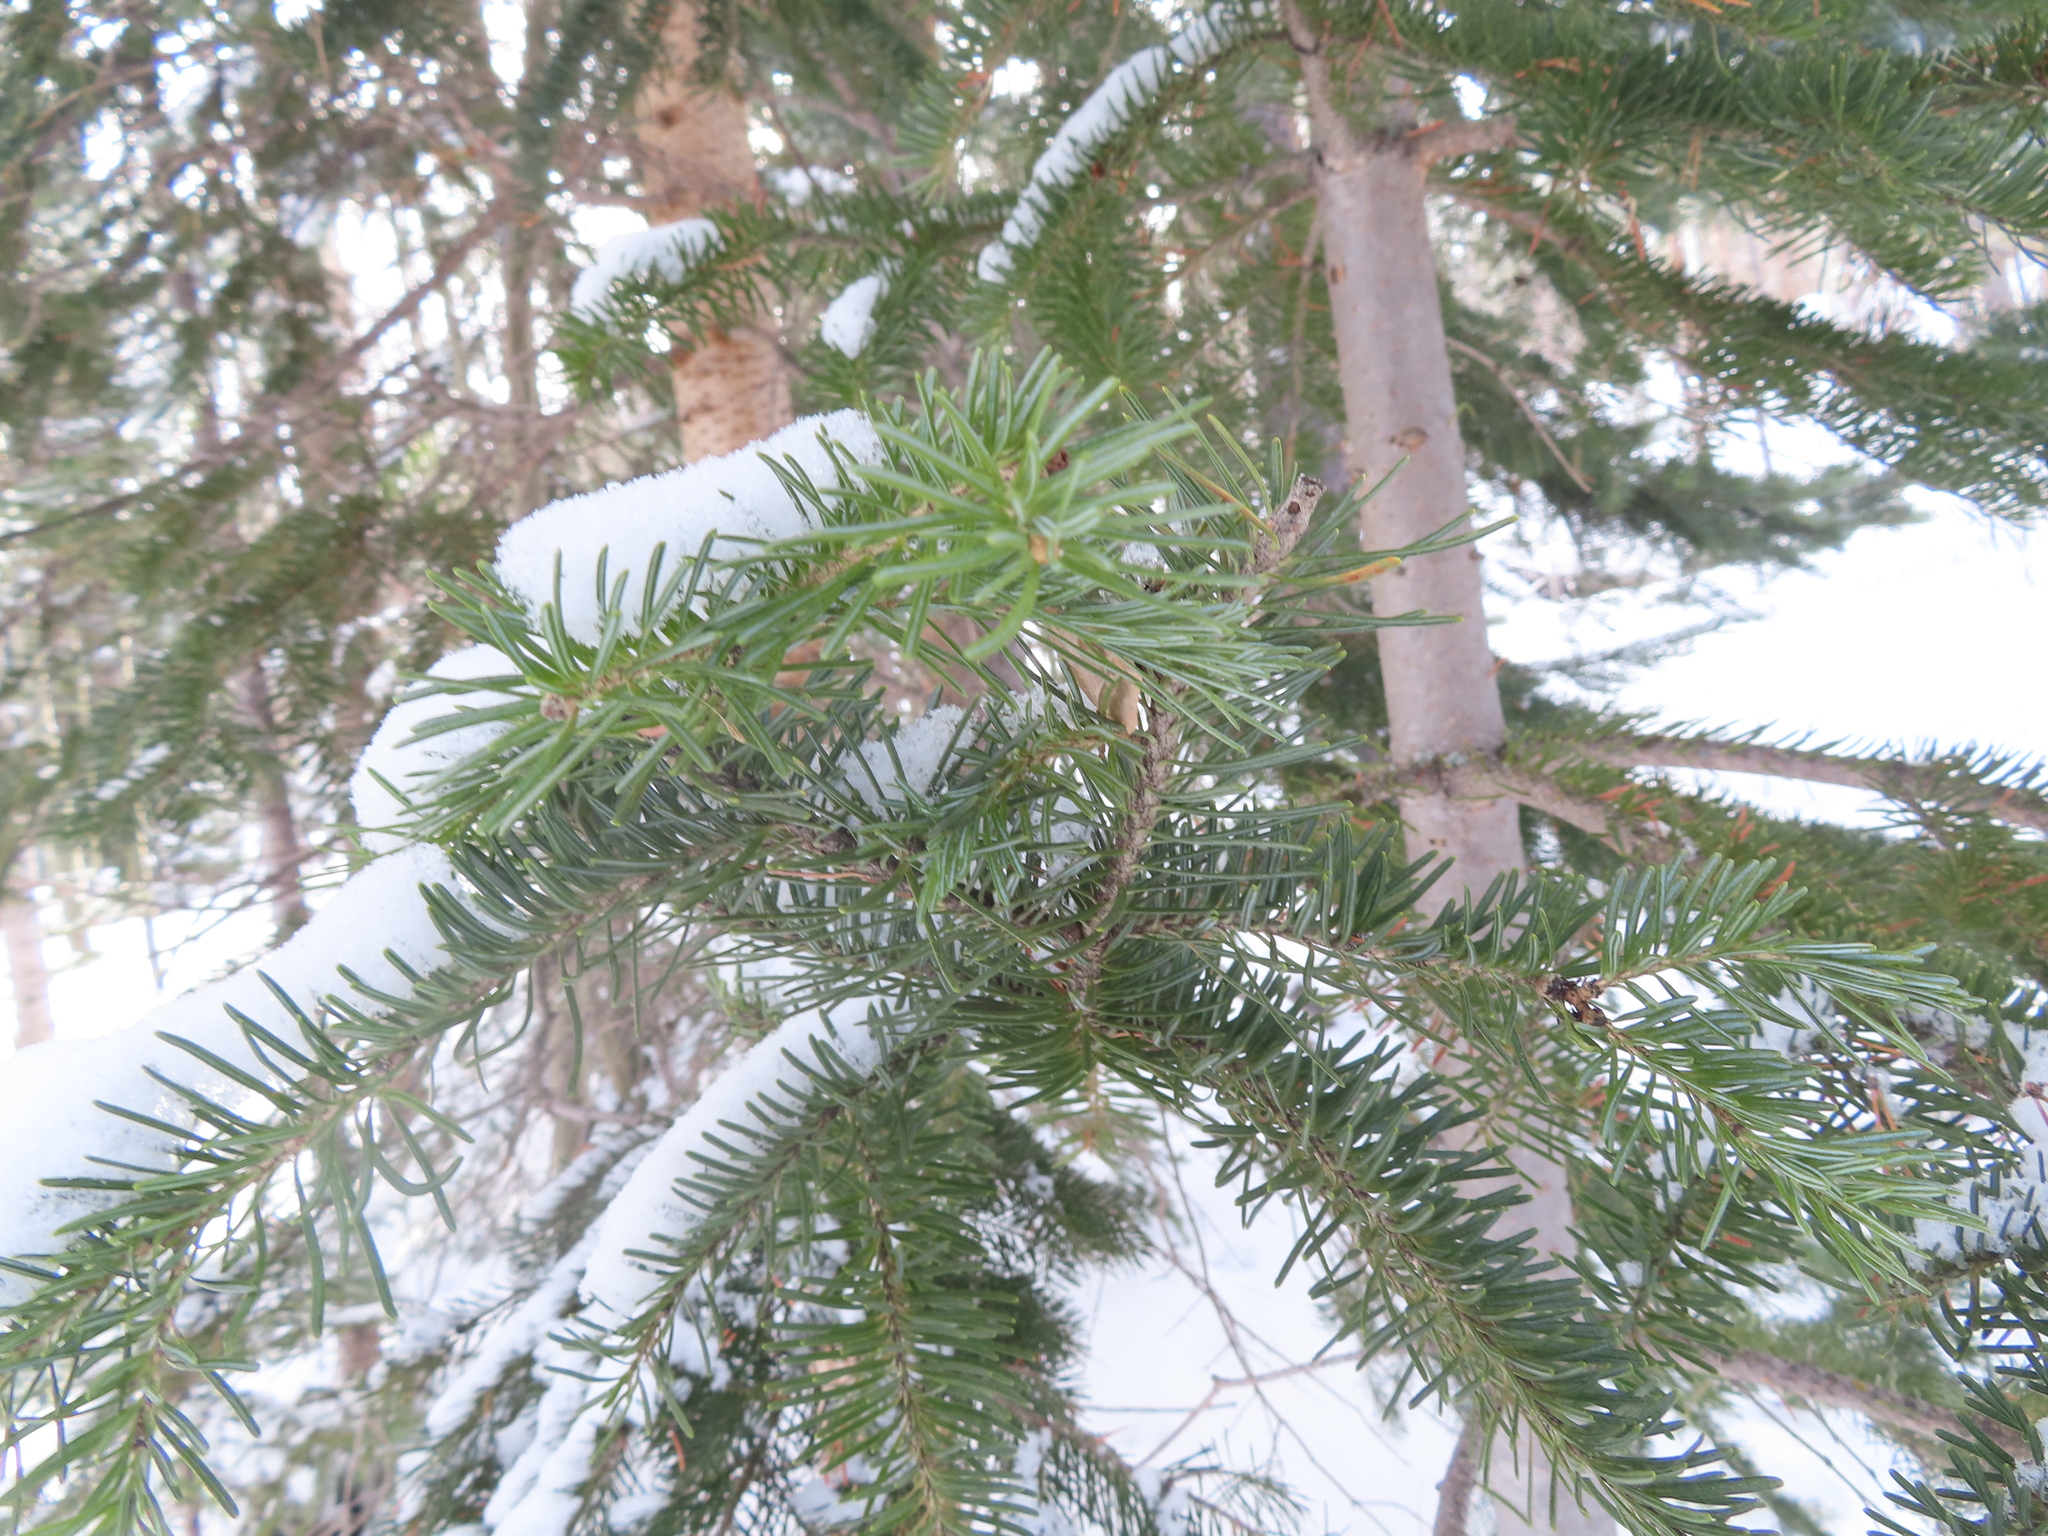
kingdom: Plantae
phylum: Tracheophyta
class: Pinopsida
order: Pinales
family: Pinaceae
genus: Abies
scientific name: Abies lasiocarpa
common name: Subalpine fir
